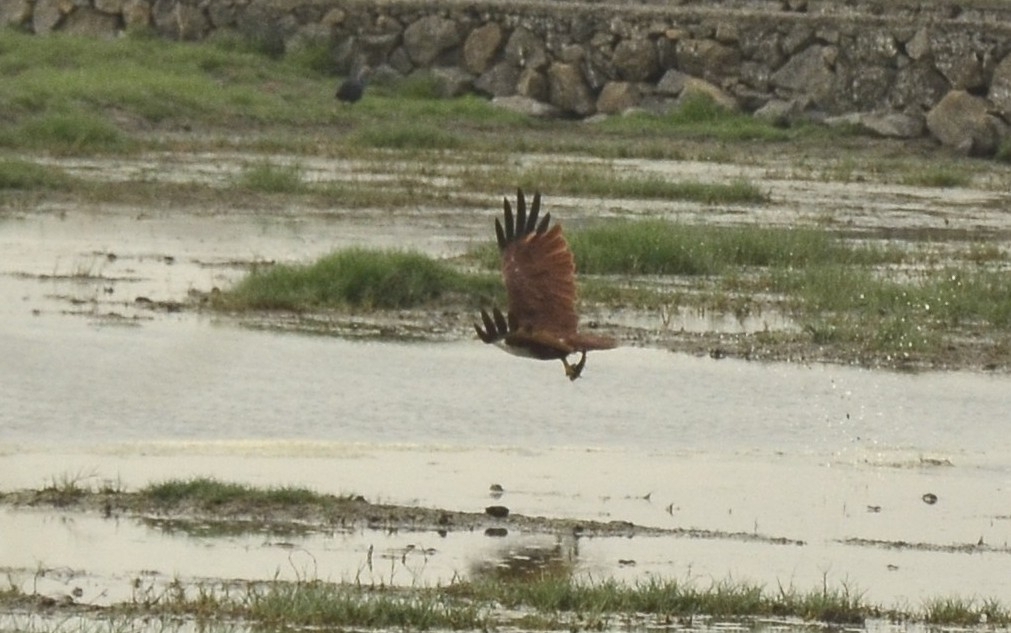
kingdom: Animalia
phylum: Chordata
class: Aves
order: Accipitriformes
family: Accipitridae
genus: Haliastur
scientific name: Haliastur indus
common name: Brahminy kite
